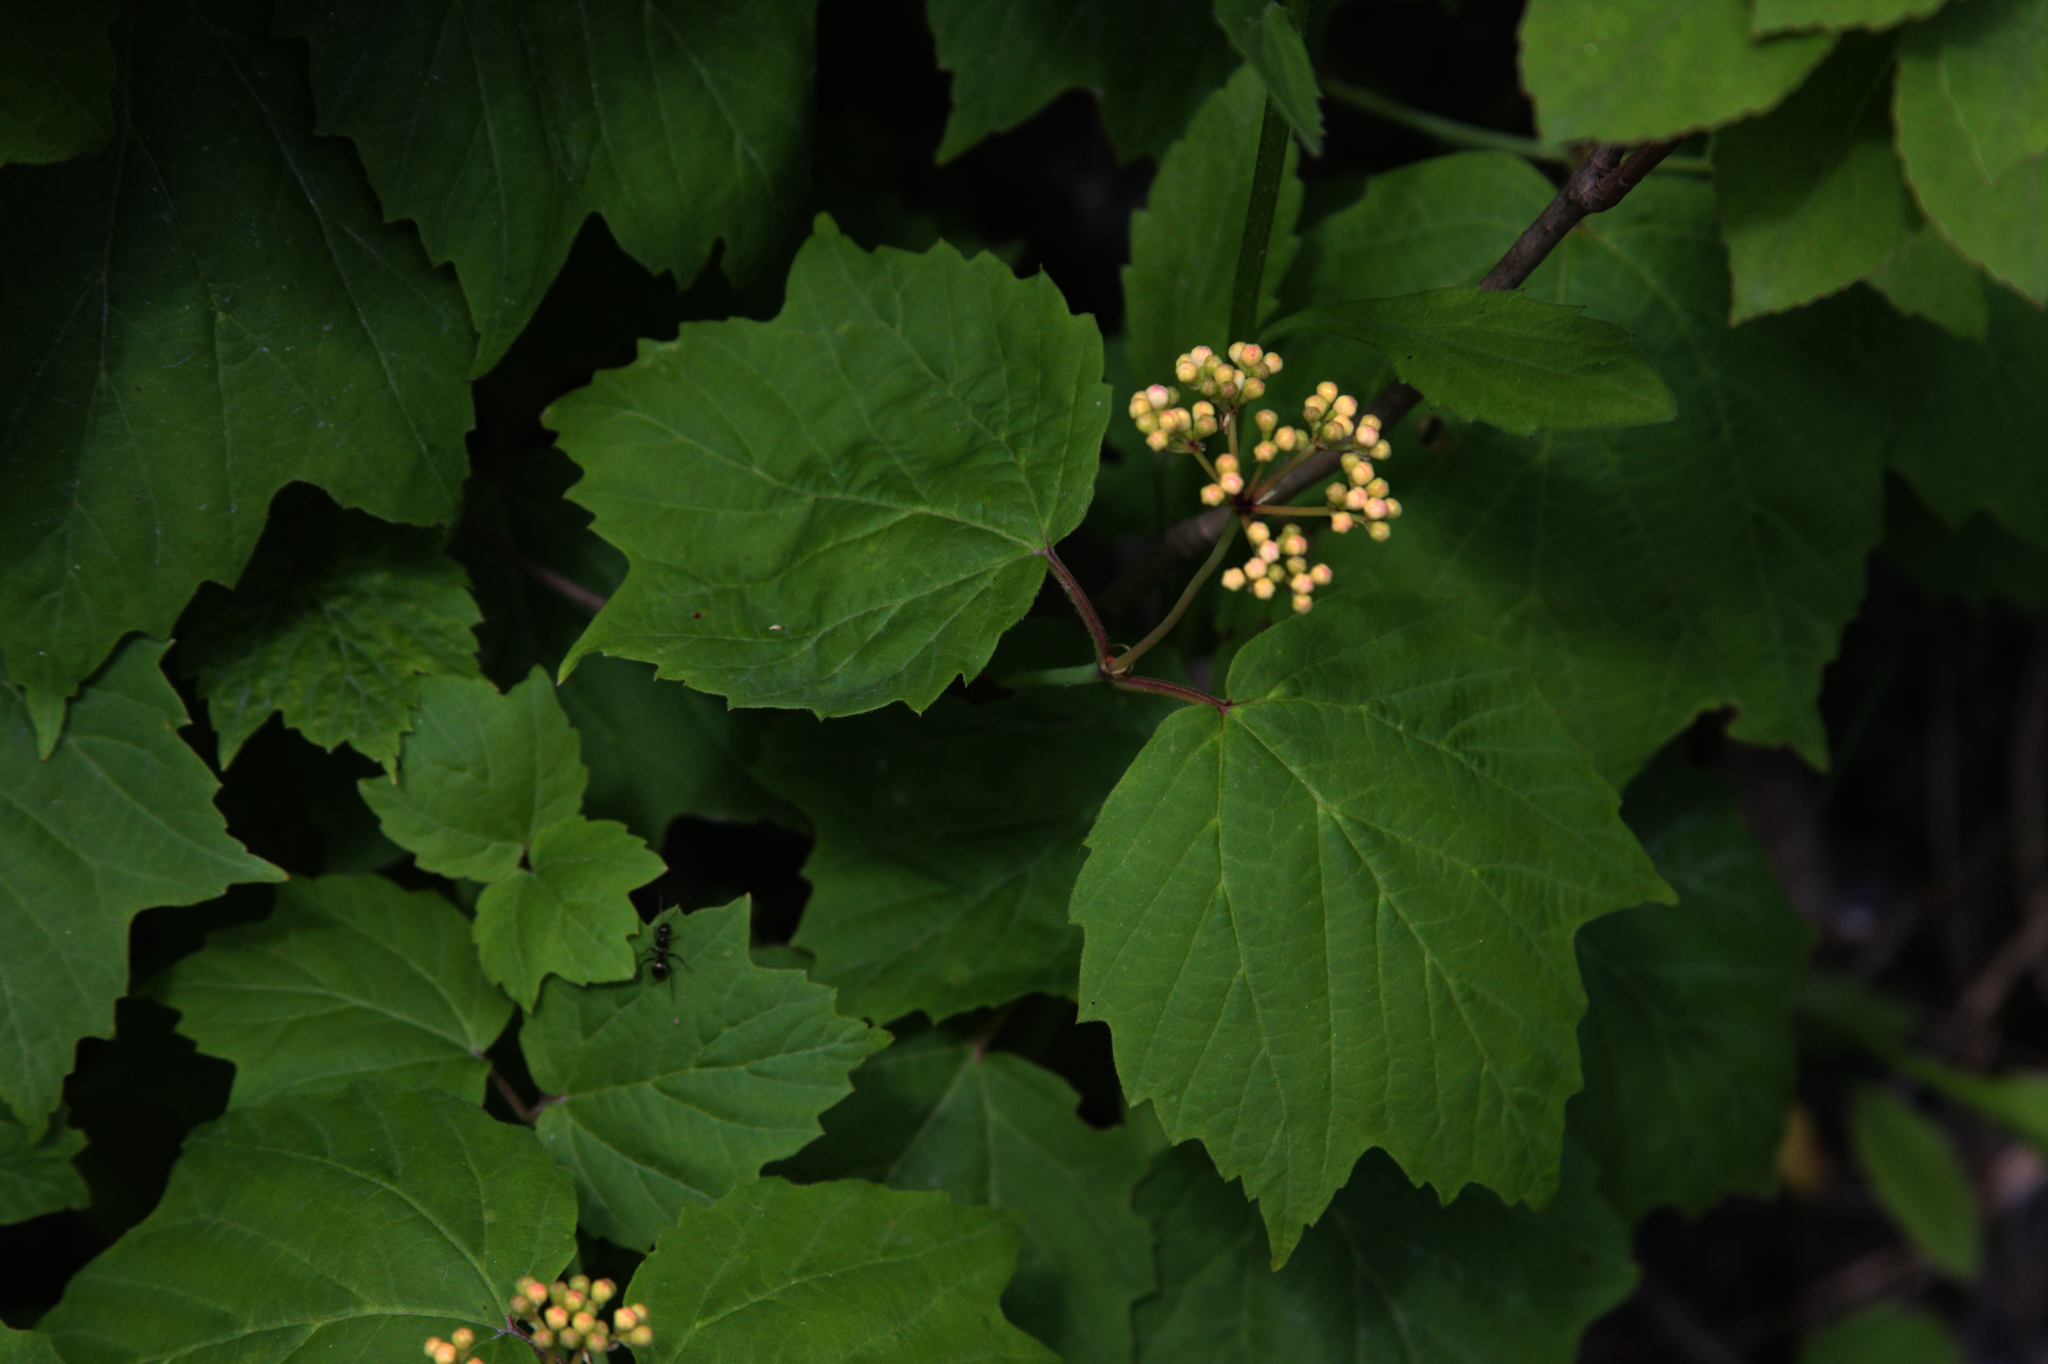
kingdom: Plantae
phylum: Tracheophyta
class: Magnoliopsida
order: Dipsacales
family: Viburnaceae
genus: Viburnum
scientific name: Viburnum acerifolium
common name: Dockmackie
